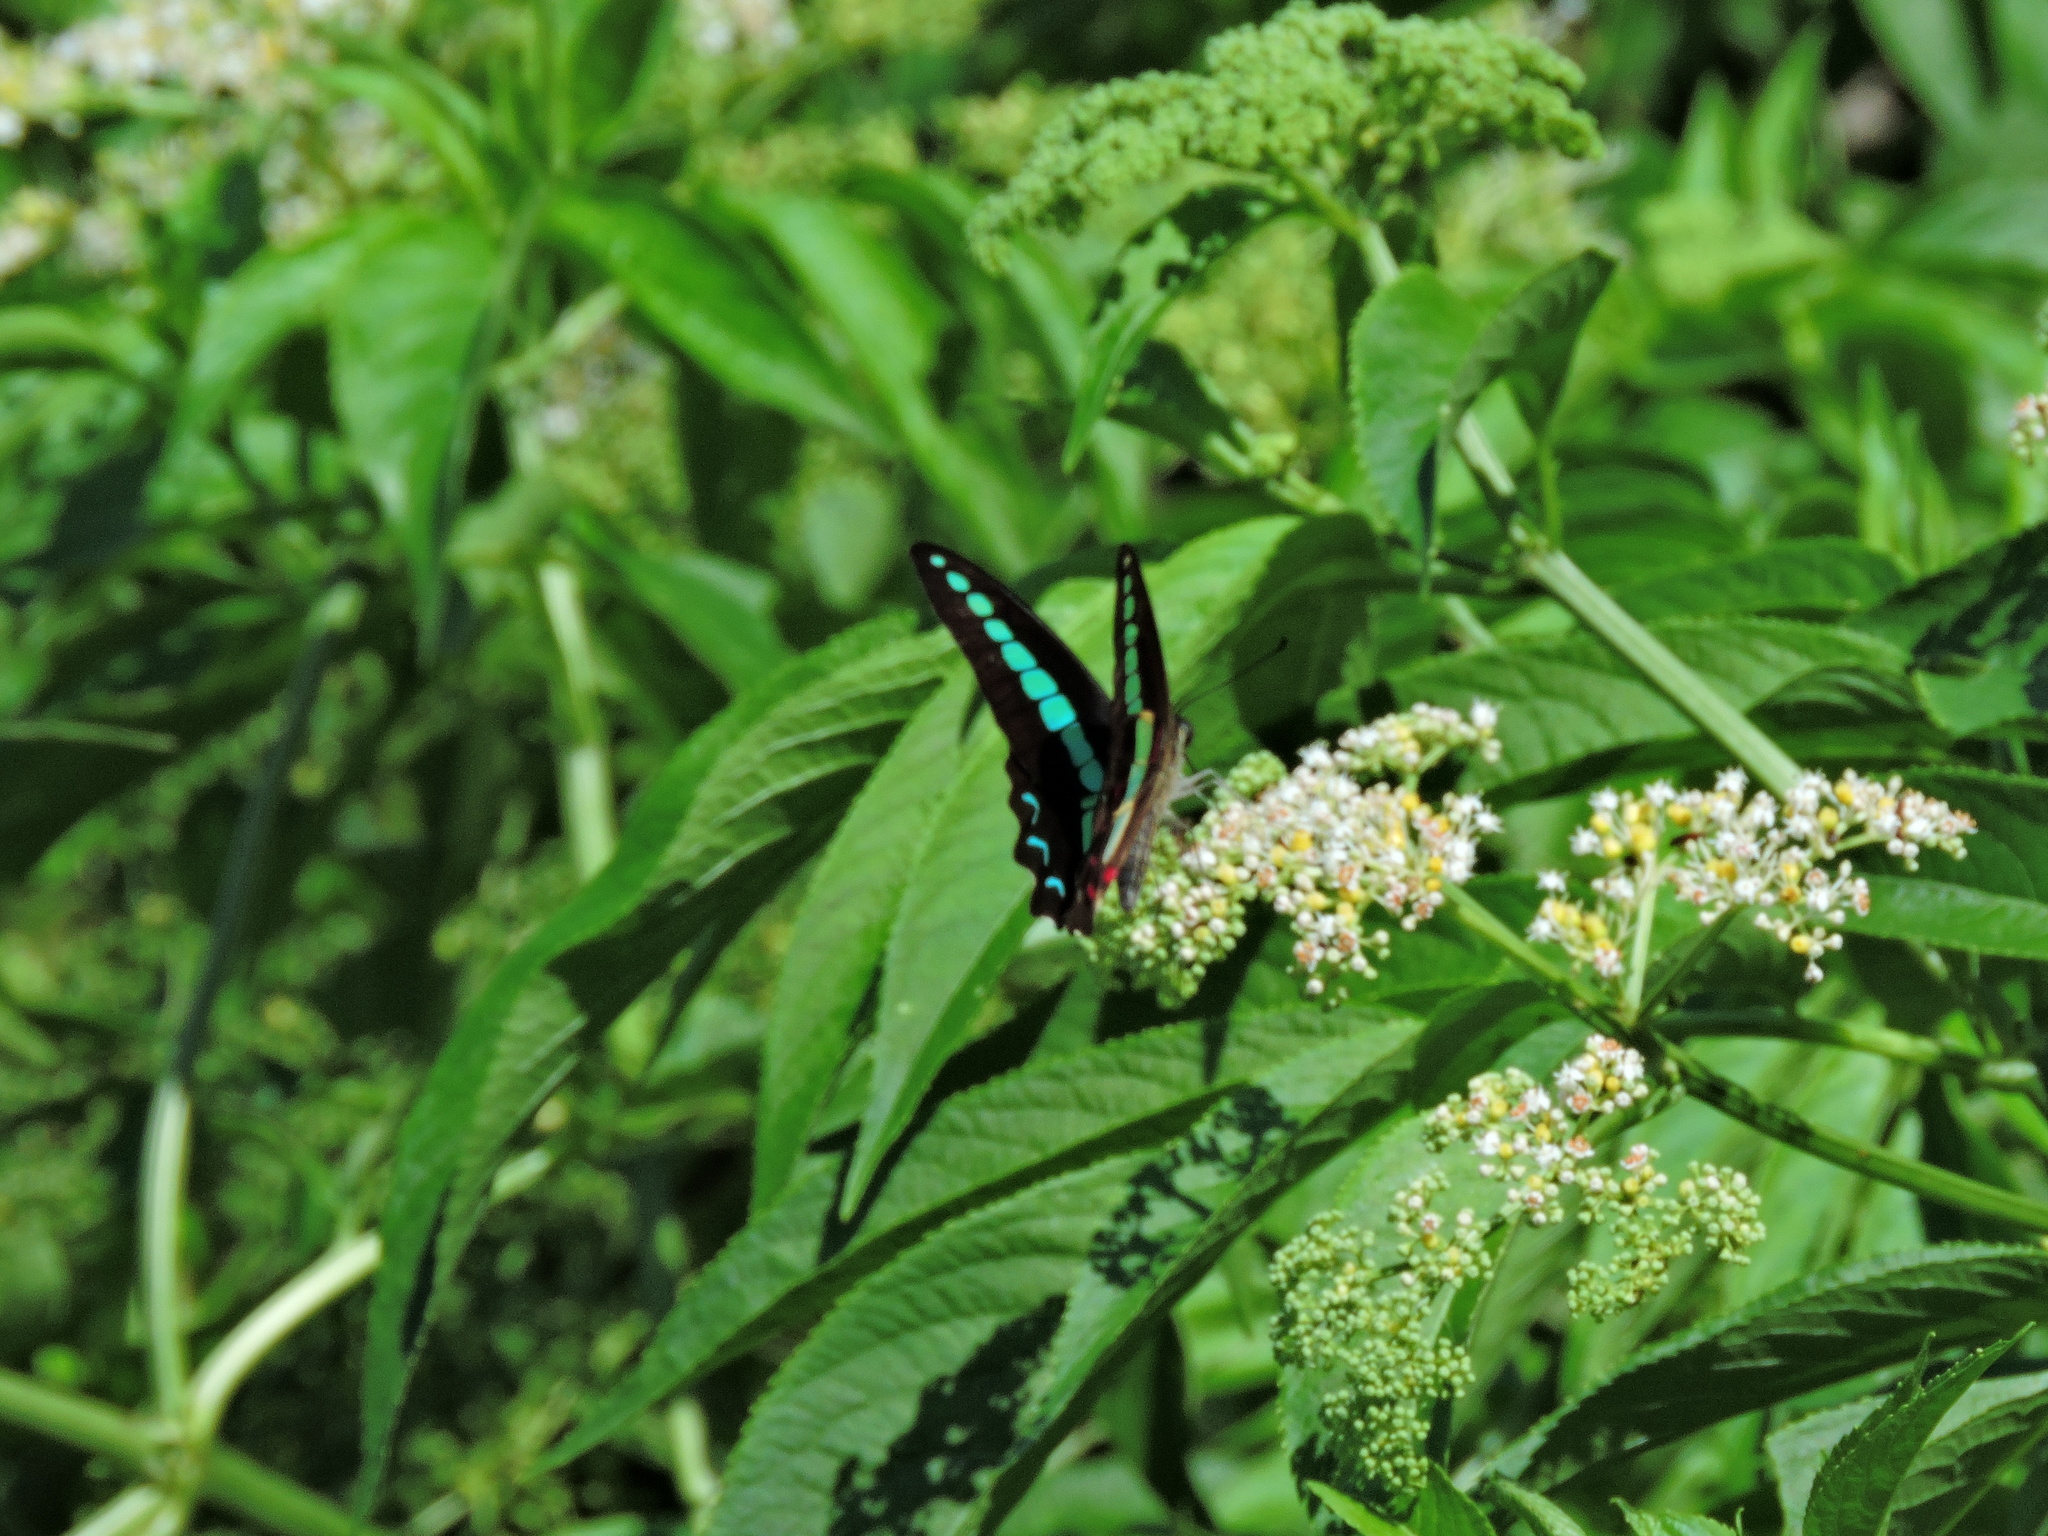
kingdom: Fungi
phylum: Ascomycota
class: Sordariomycetes
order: Microascales
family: Microascaceae
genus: Graphium
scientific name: Graphium sarpedon
